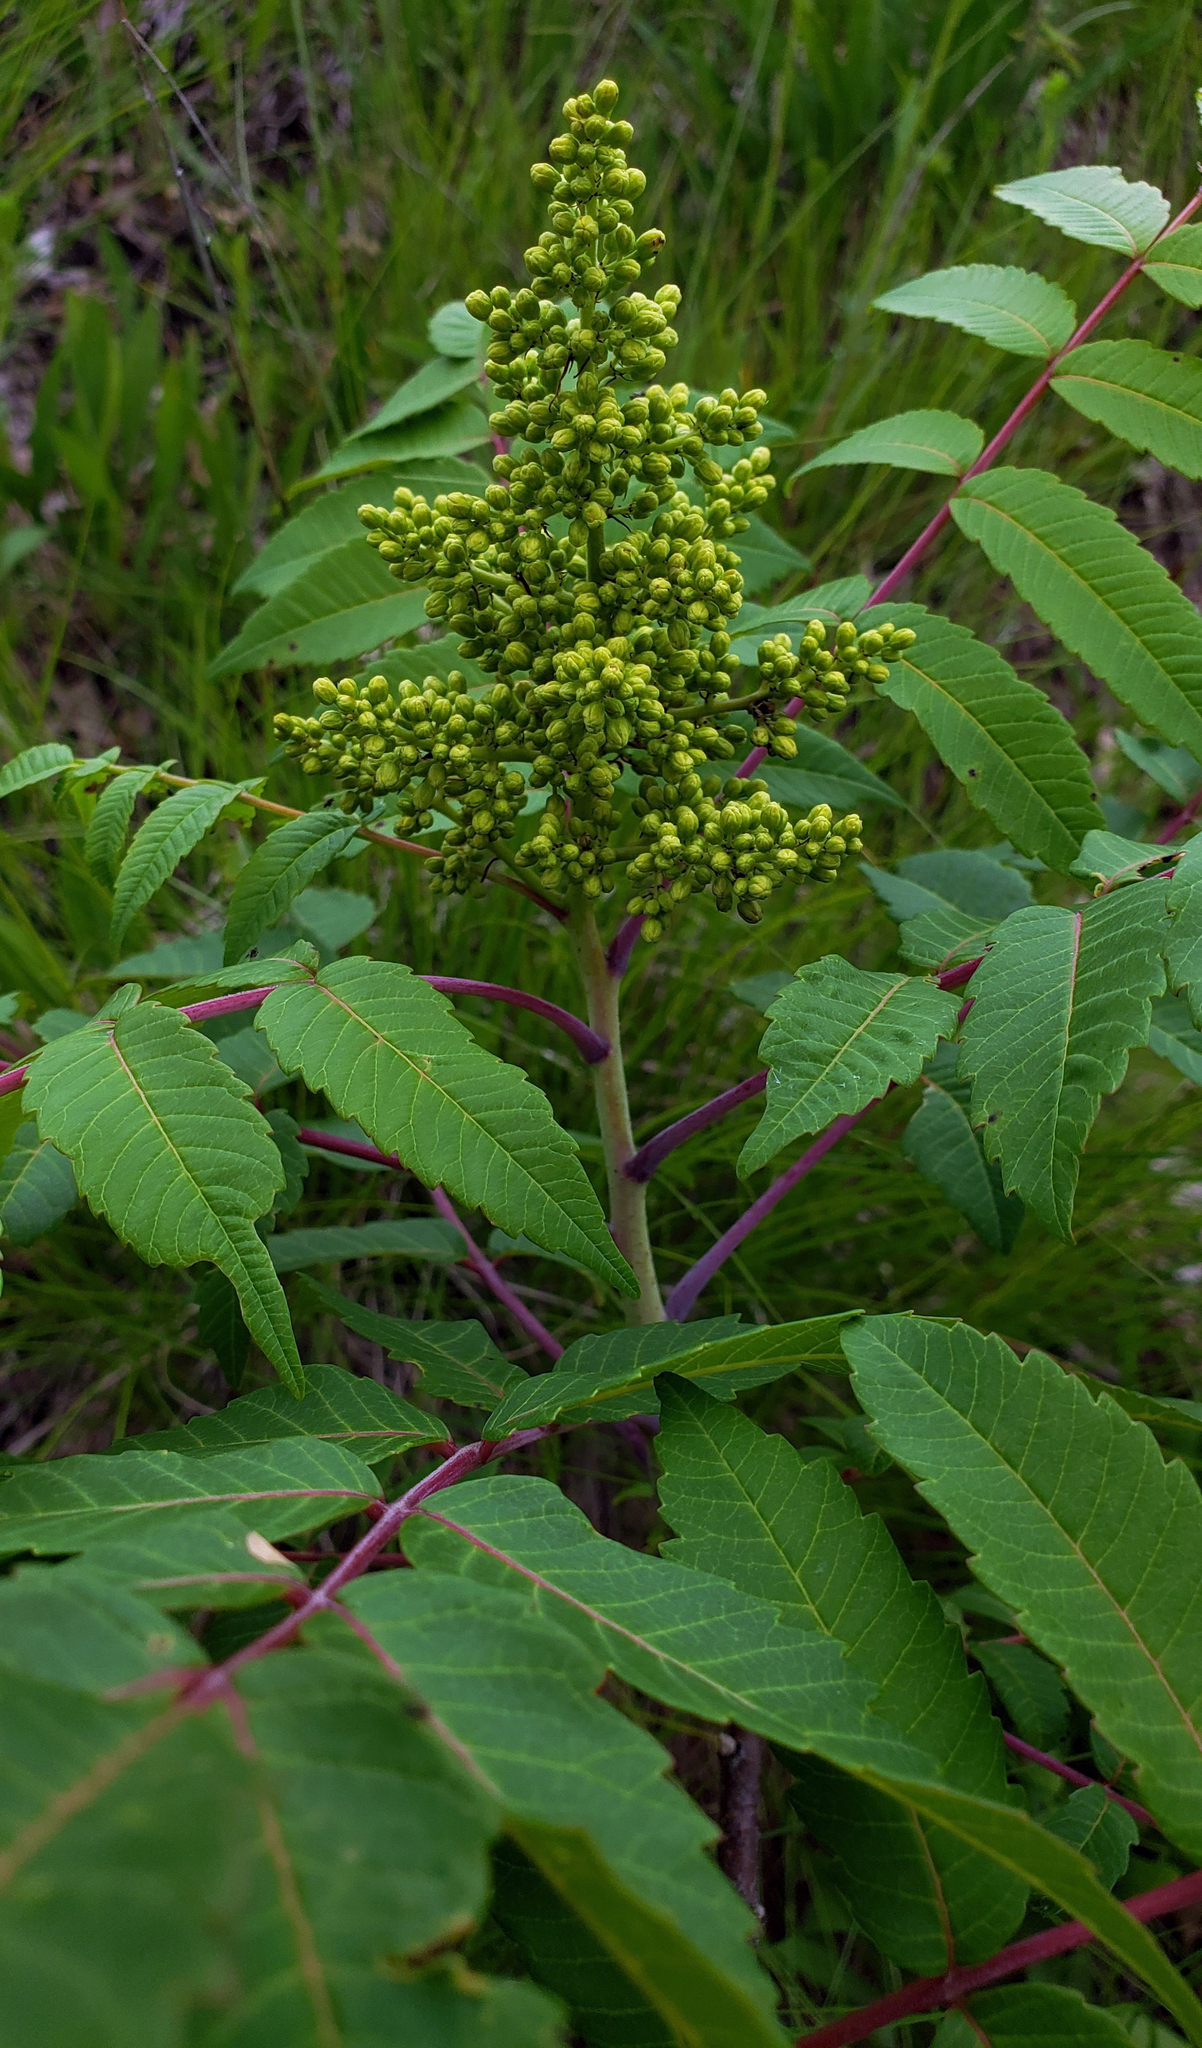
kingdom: Plantae
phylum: Tracheophyta
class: Magnoliopsida
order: Sapindales
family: Anacardiaceae
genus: Rhus
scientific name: Rhus glabra
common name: Scarlet sumac
